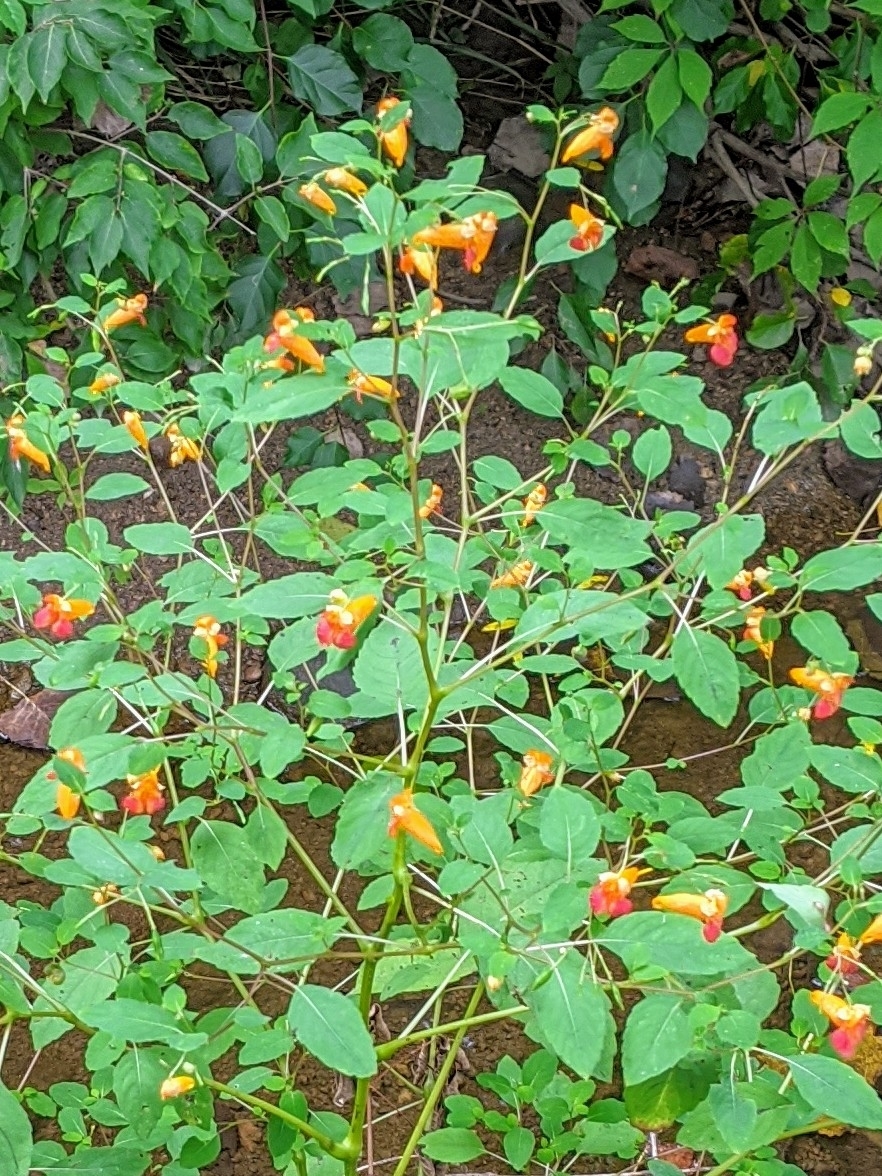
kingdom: Plantae
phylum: Tracheophyta
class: Magnoliopsida
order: Ericales
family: Balsaminaceae
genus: Impatiens
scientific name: Impatiens capensis
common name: Orange balsam
